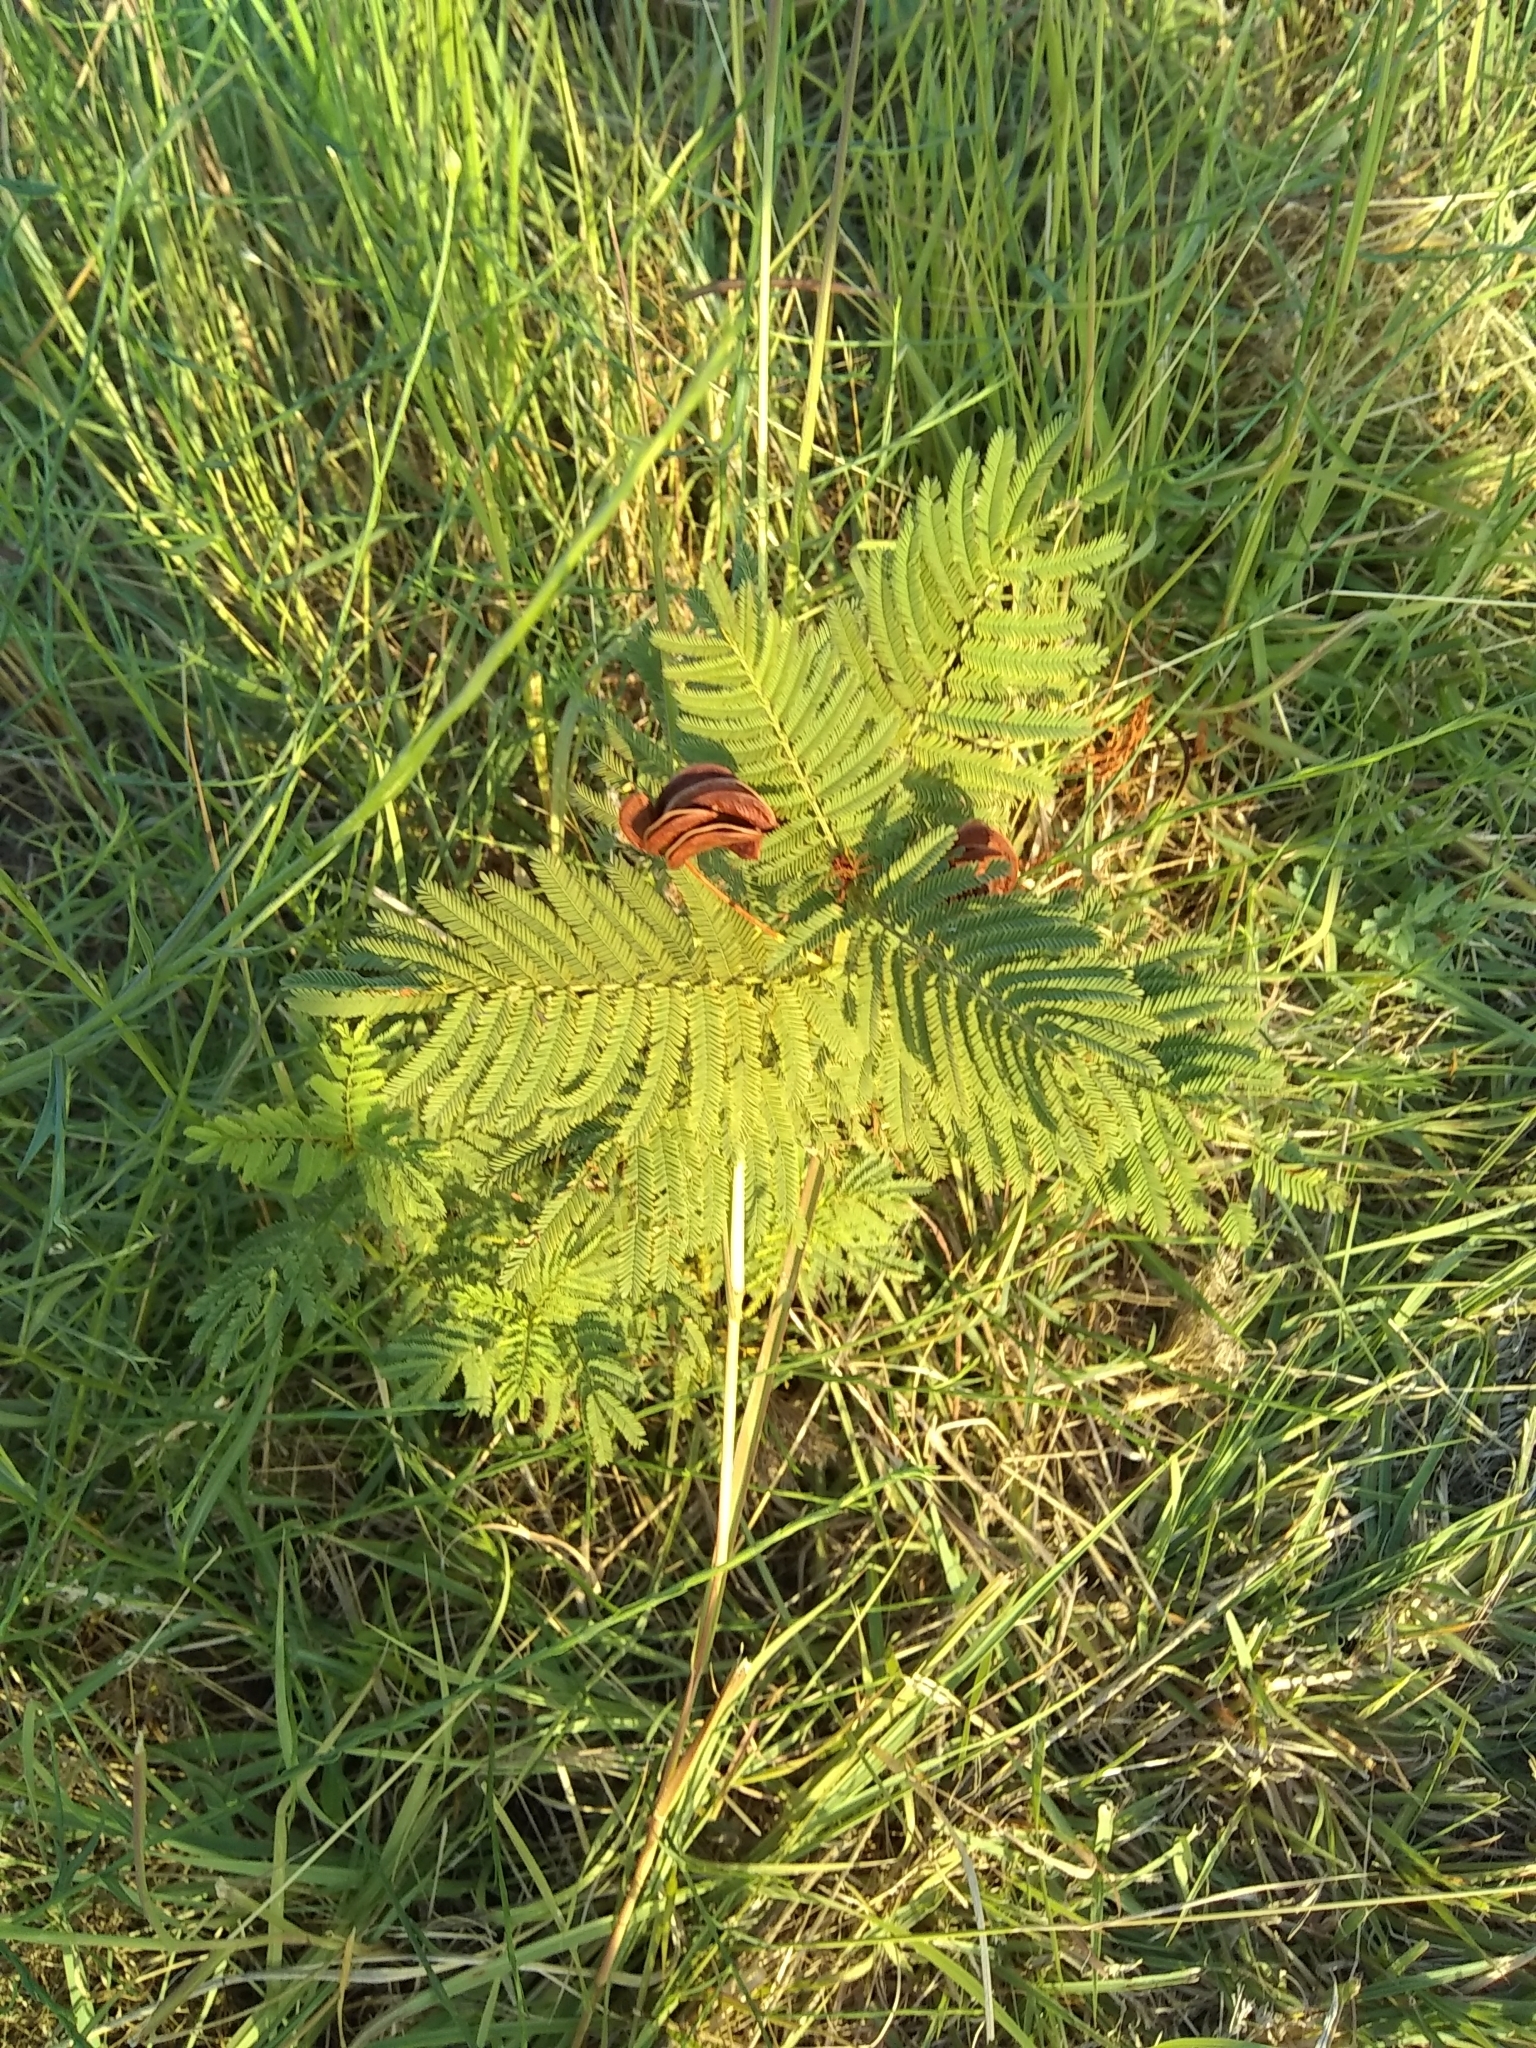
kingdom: Plantae
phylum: Tracheophyta
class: Magnoliopsida
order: Fabales
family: Fabaceae
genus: Desmanthus
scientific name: Desmanthus illinoensis
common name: Illinois bundle-flower
